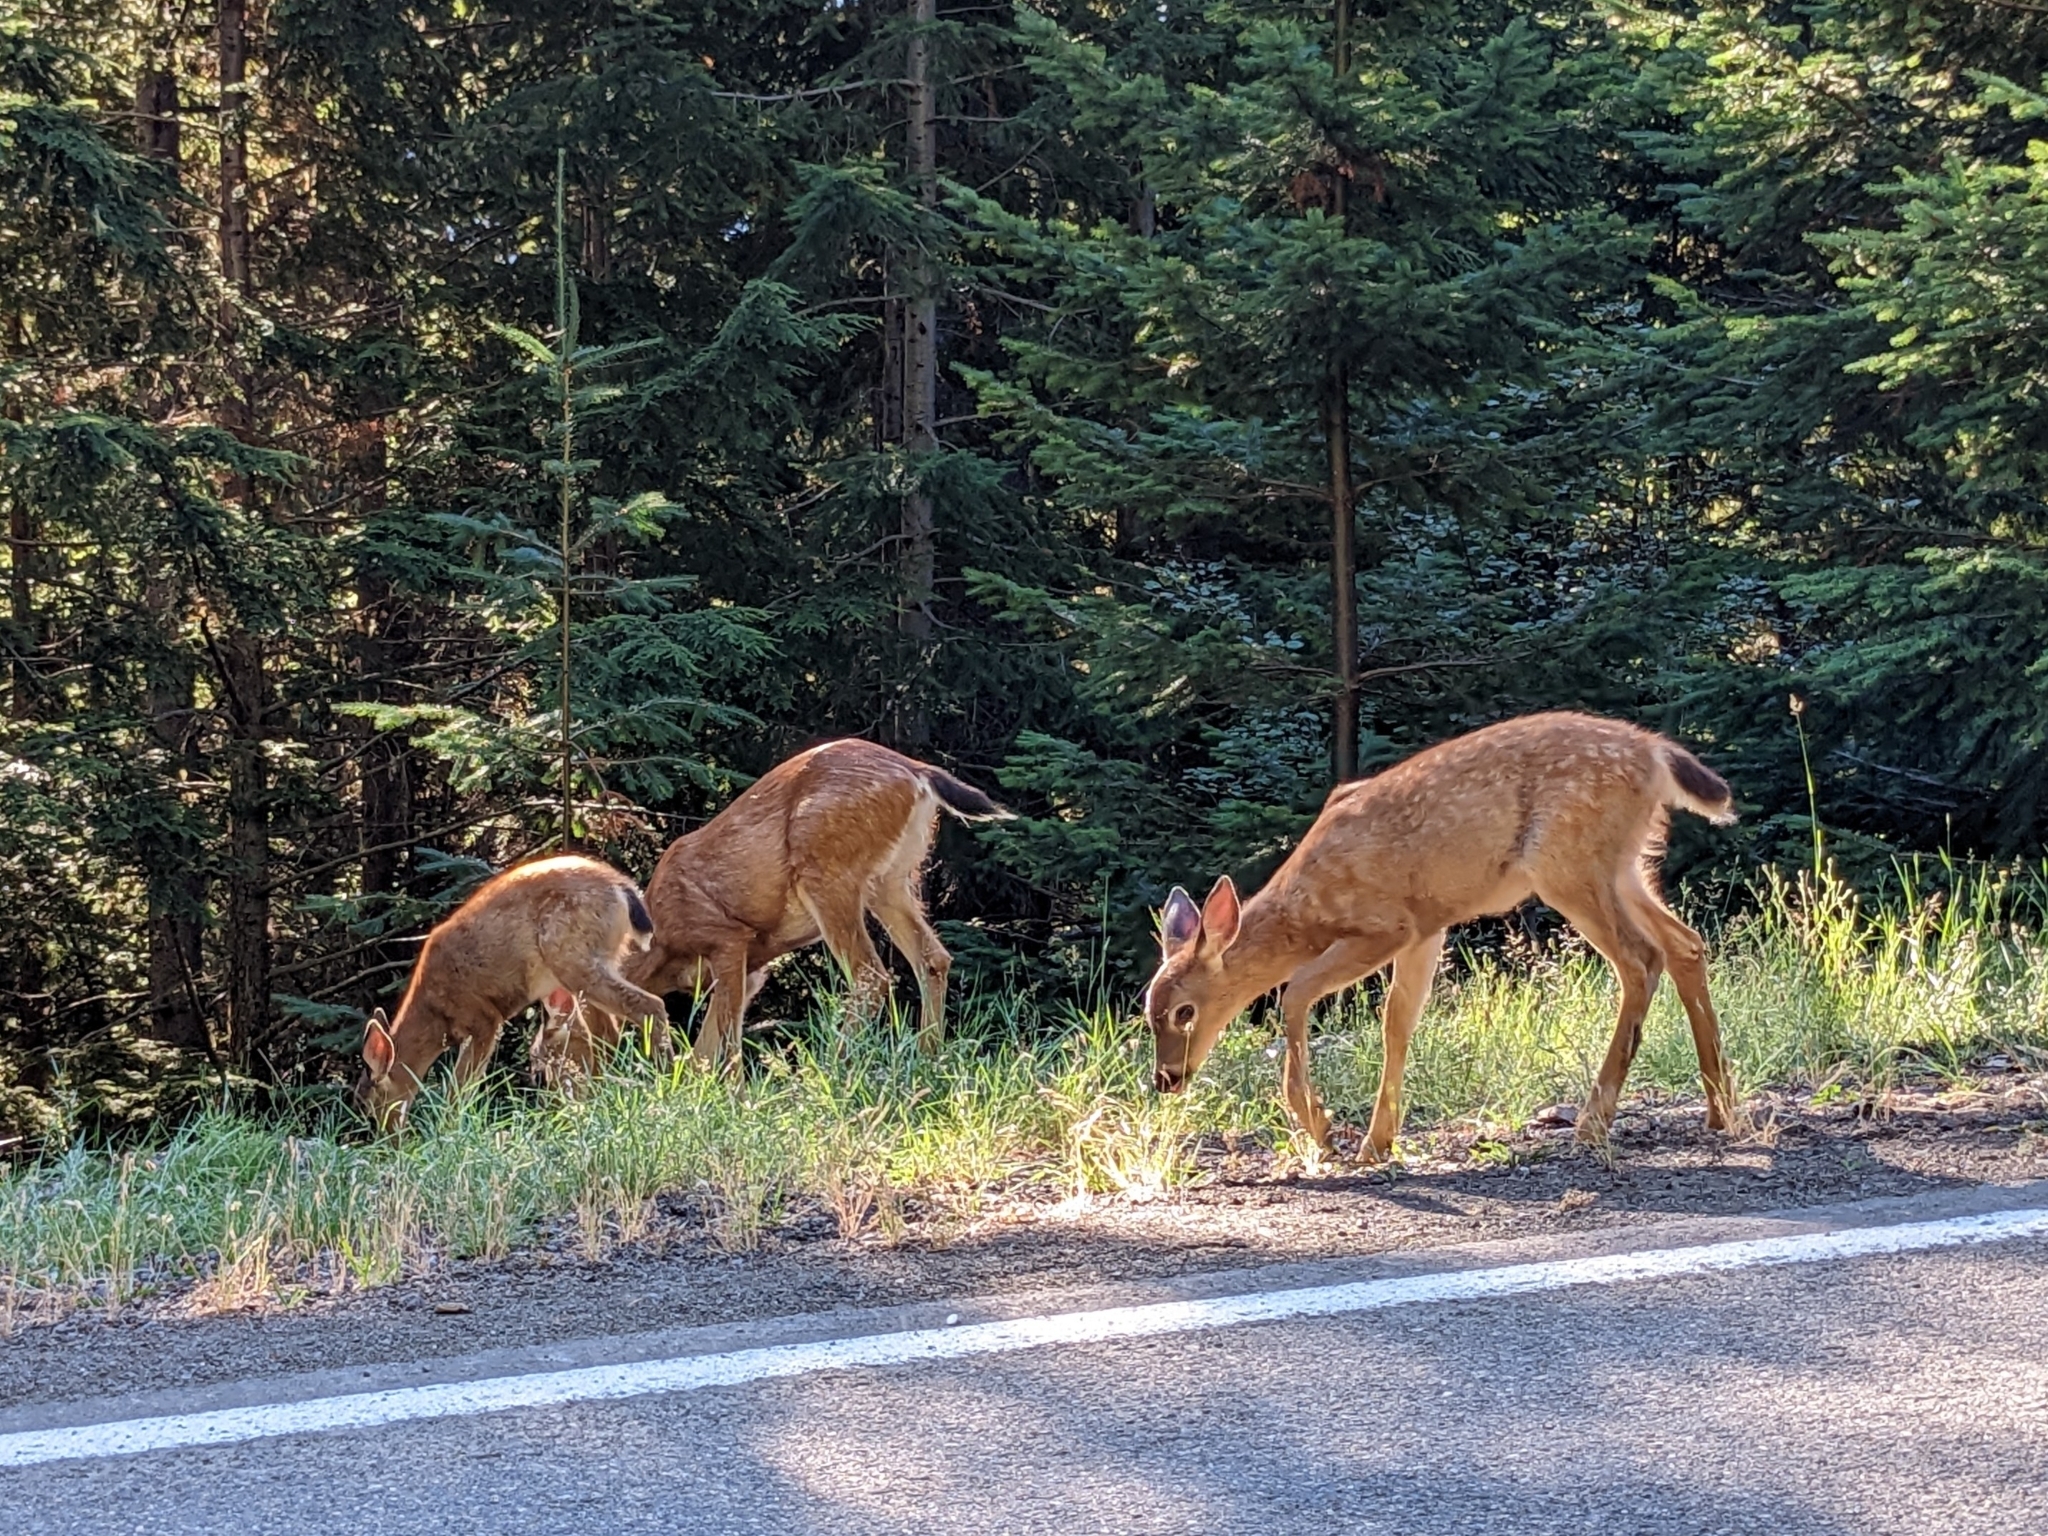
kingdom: Animalia
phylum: Chordata
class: Mammalia
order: Artiodactyla
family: Cervidae
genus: Odocoileus
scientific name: Odocoileus hemionus
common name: Mule deer
